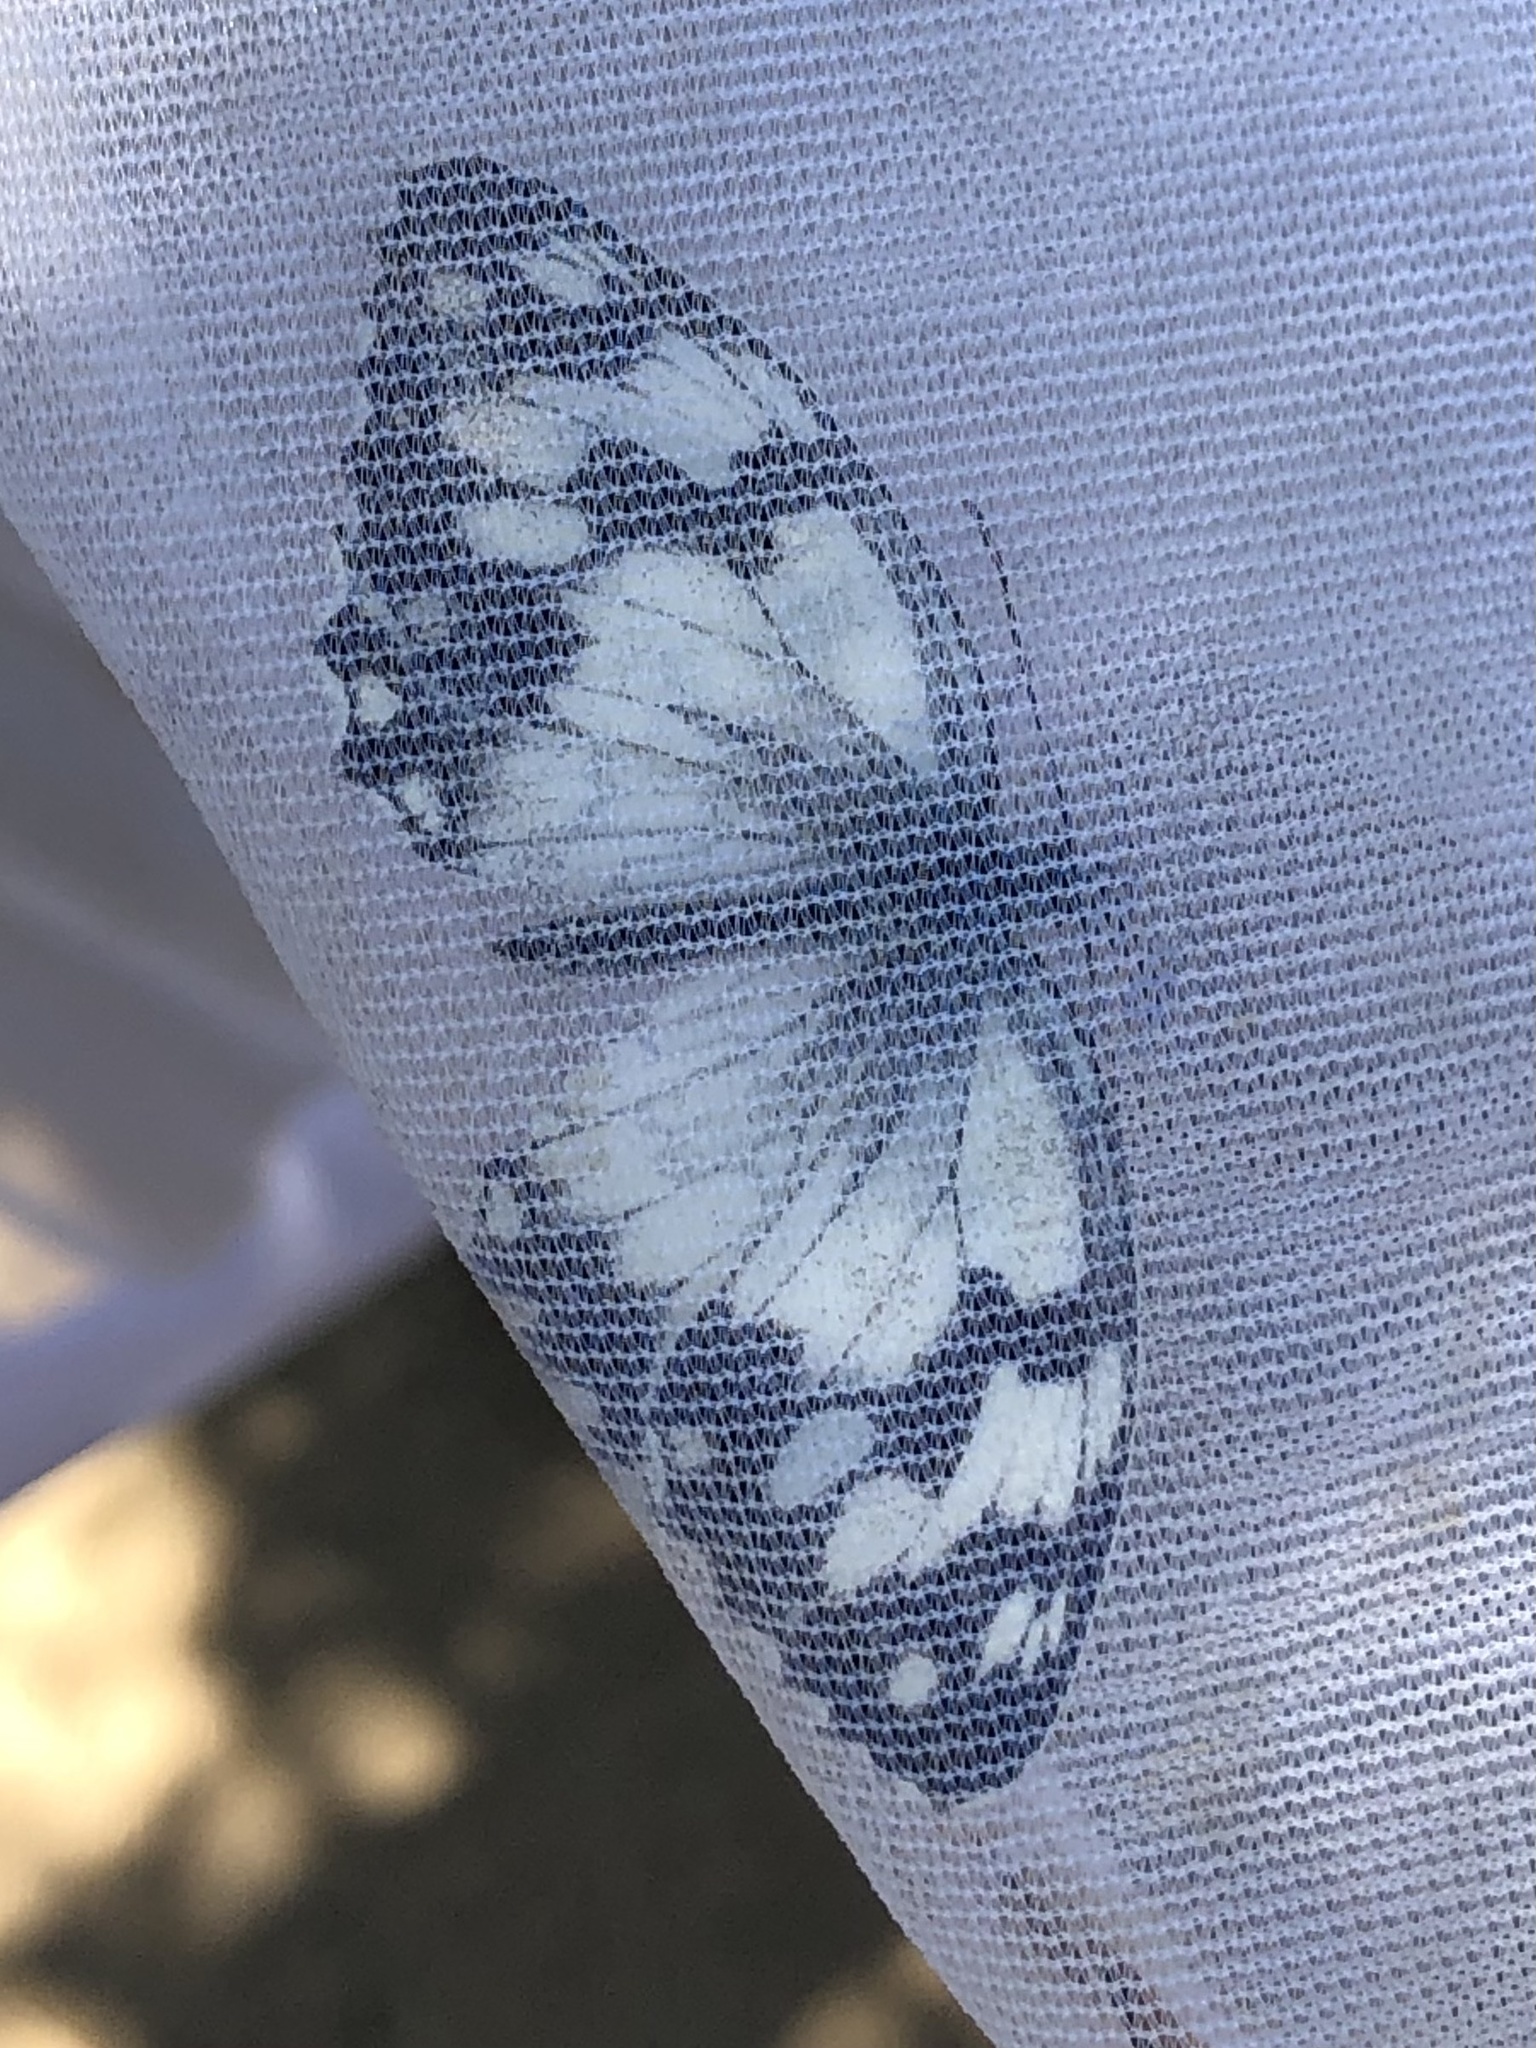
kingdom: Animalia
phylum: Arthropoda
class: Insecta
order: Lepidoptera
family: Nymphalidae
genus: Melanargia
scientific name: Melanargia lachesis
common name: Iberian marbled white
